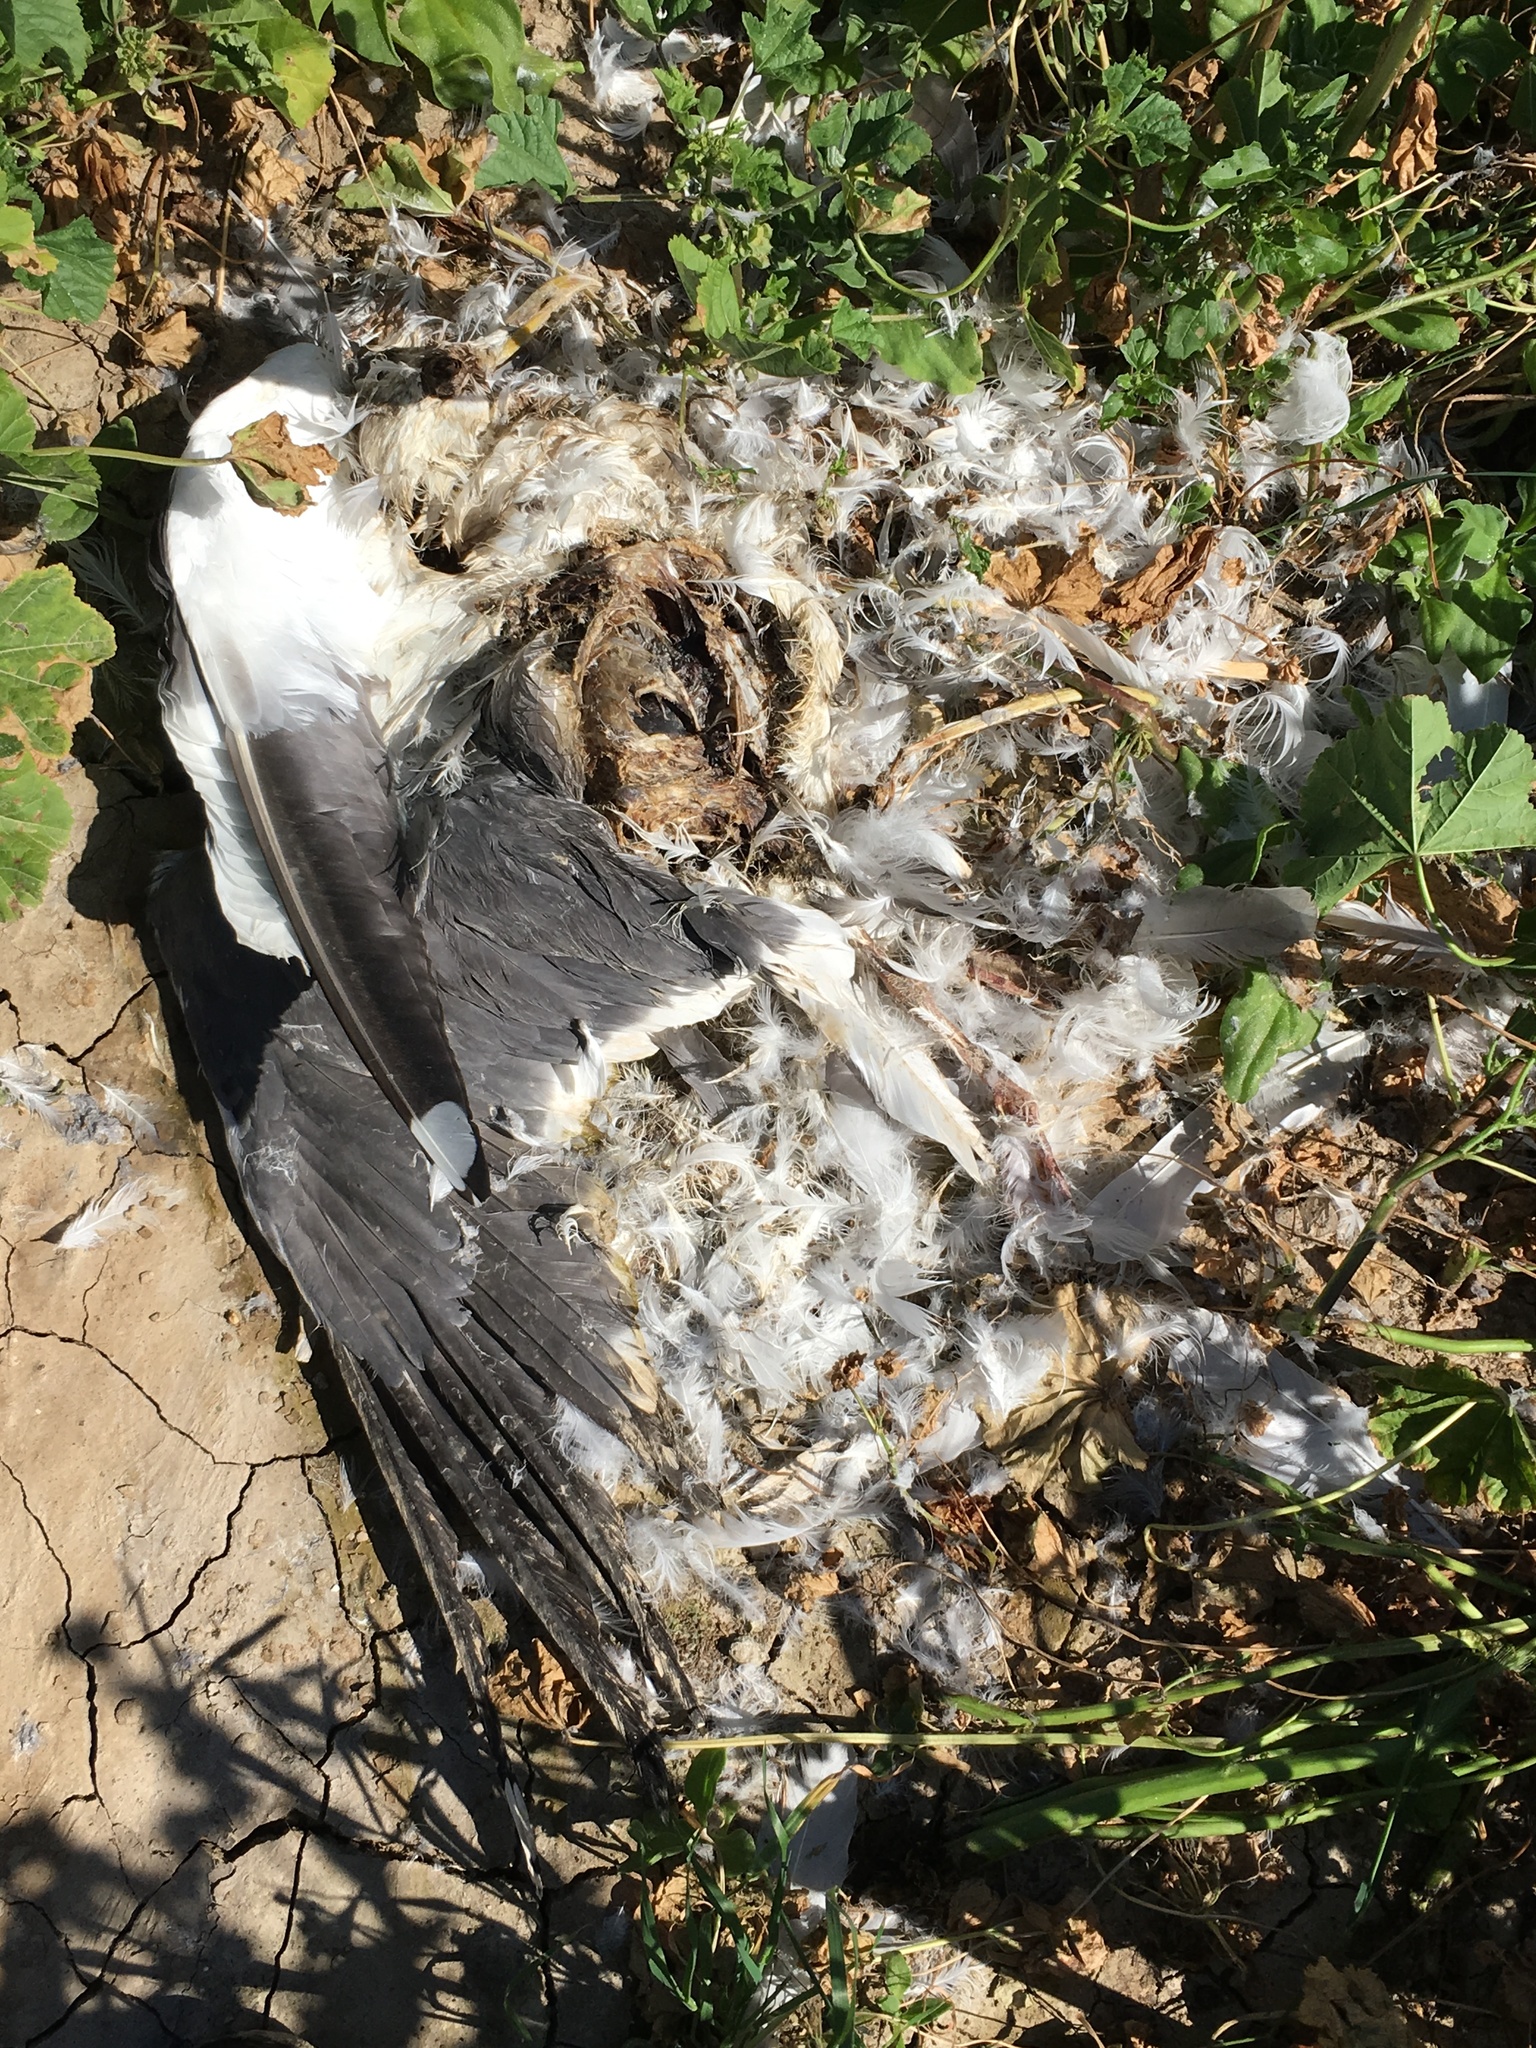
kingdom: Animalia
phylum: Chordata
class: Aves
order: Charadriiformes
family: Laridae
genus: Larus
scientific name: Larus occidentalis
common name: Western gull
